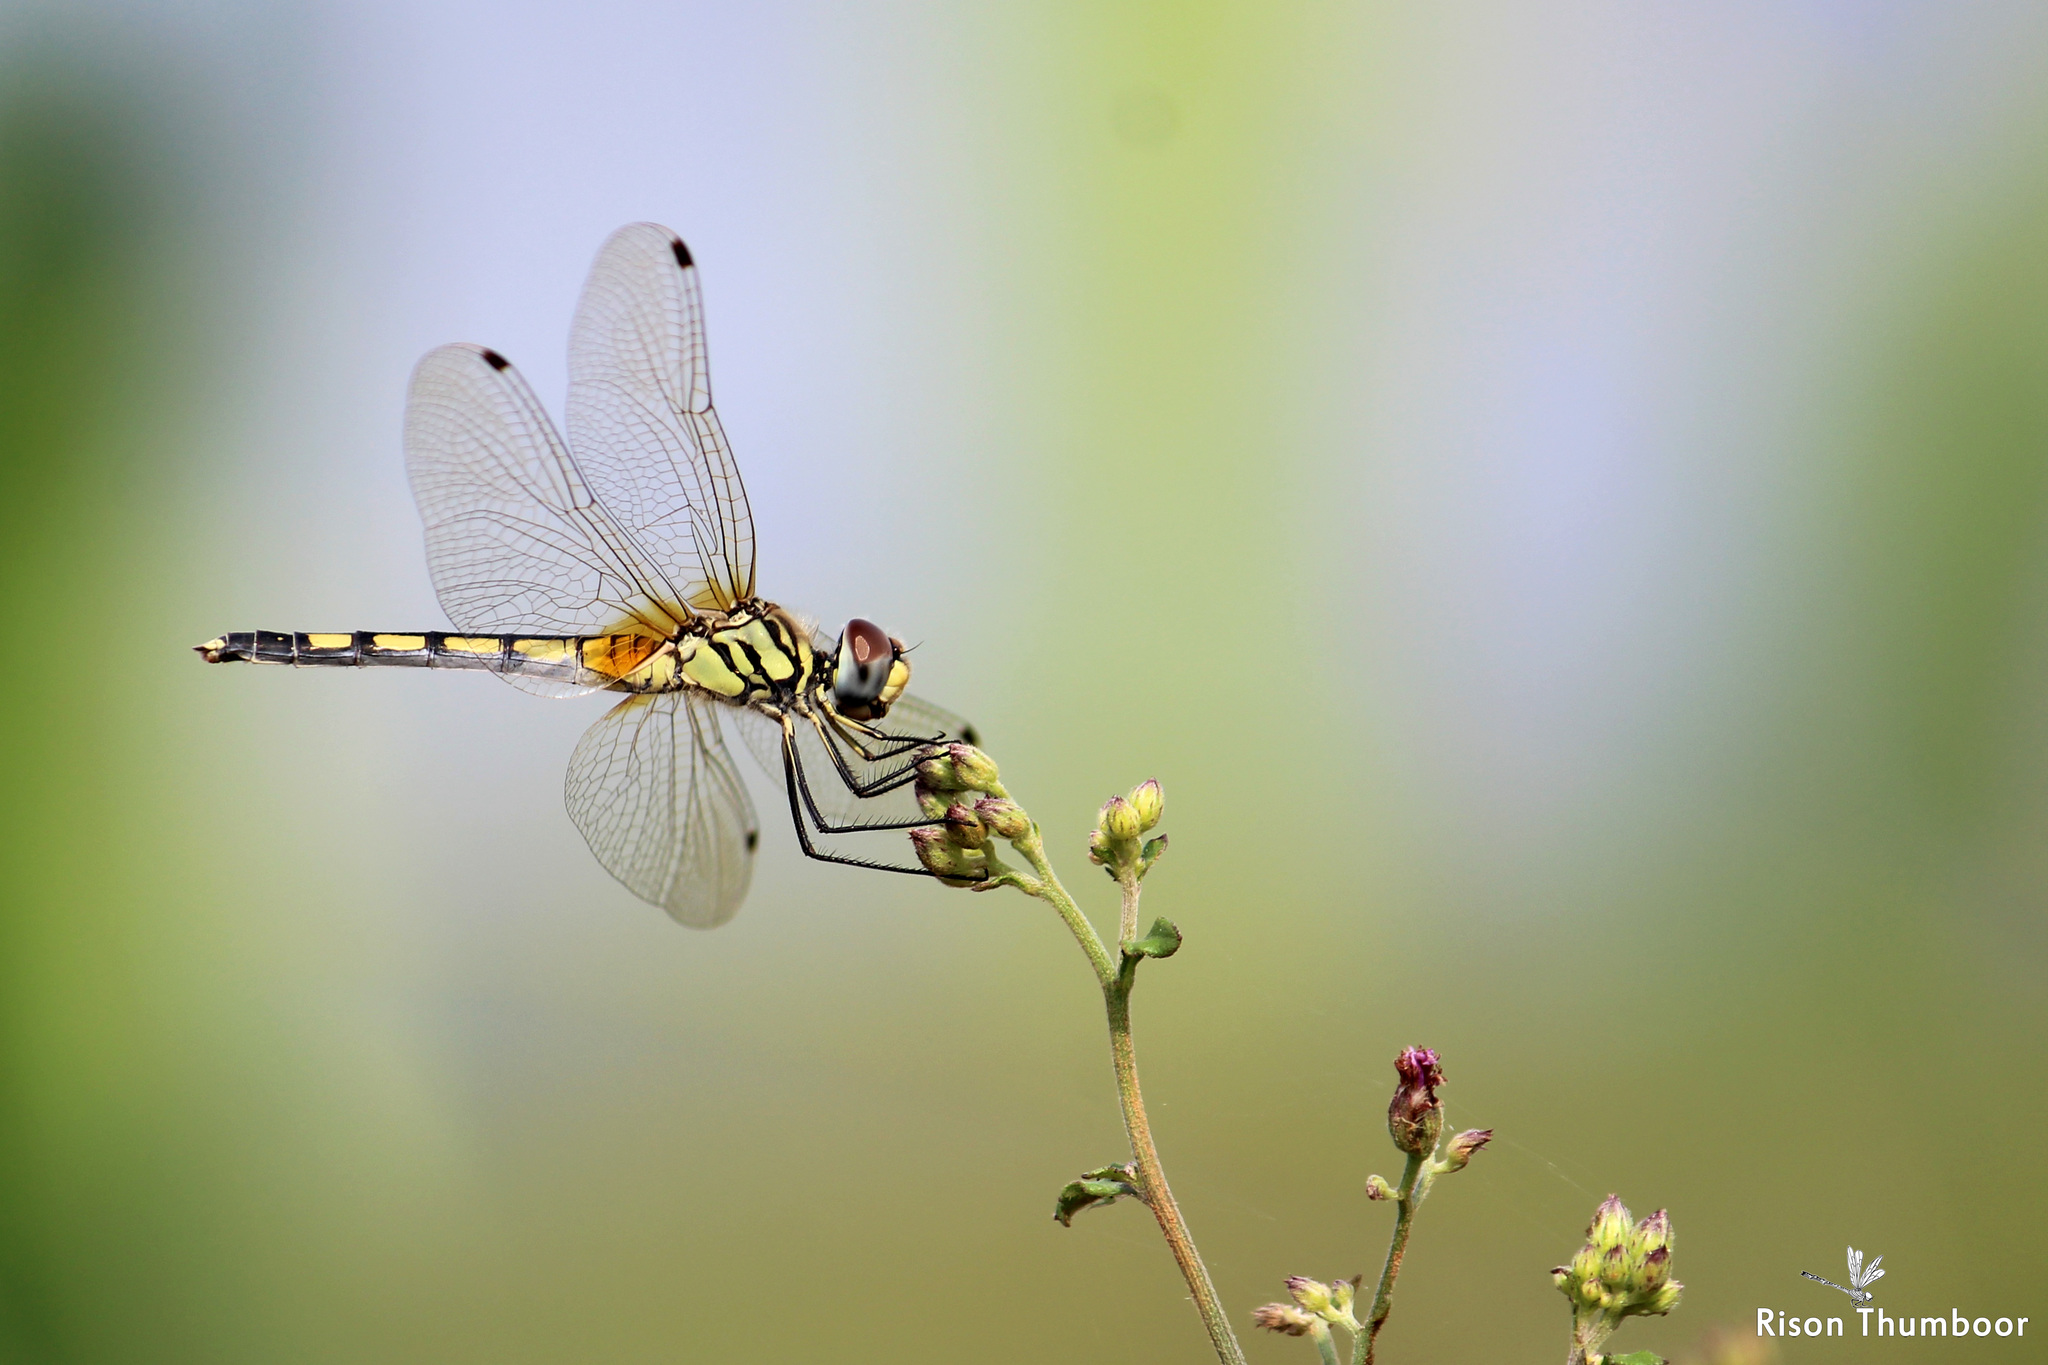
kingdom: Animalia
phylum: Arthropoda
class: Insecta
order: Odonata
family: Libellulidae
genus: Trithemis
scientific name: Trithemis pallidinervis
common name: Dancing dropwing
